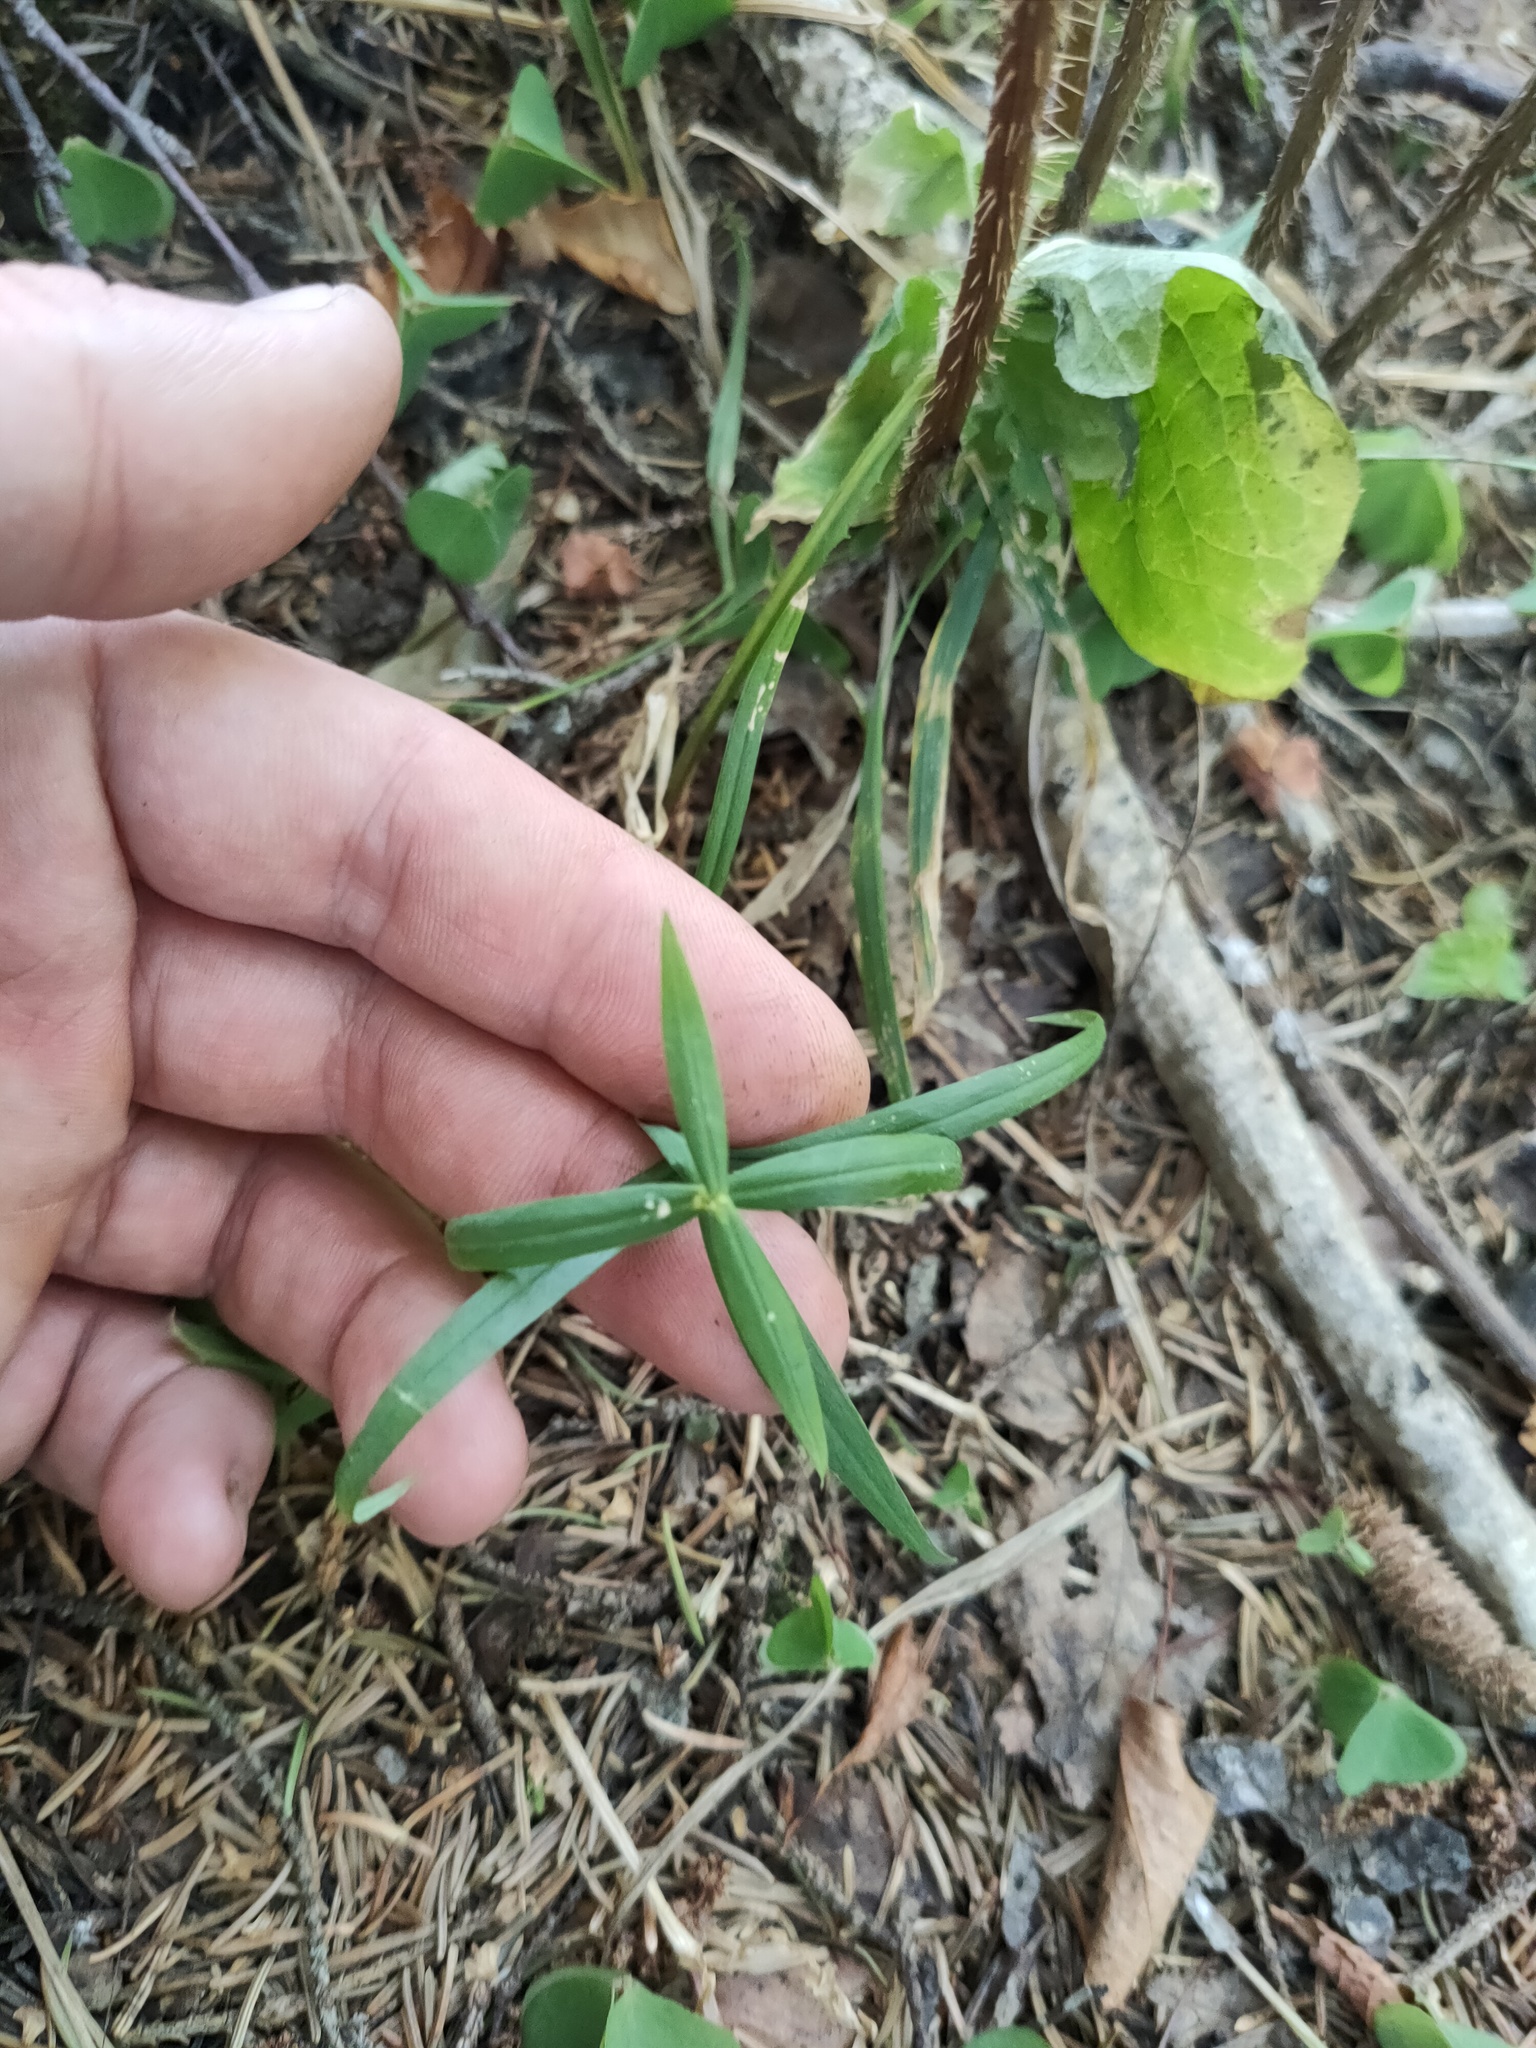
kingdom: Plantae
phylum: Tracheophyta
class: Magnoliopsida
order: Caryophyllales
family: Caryophyllaceae
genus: Rabelera
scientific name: Rabelera holostea
